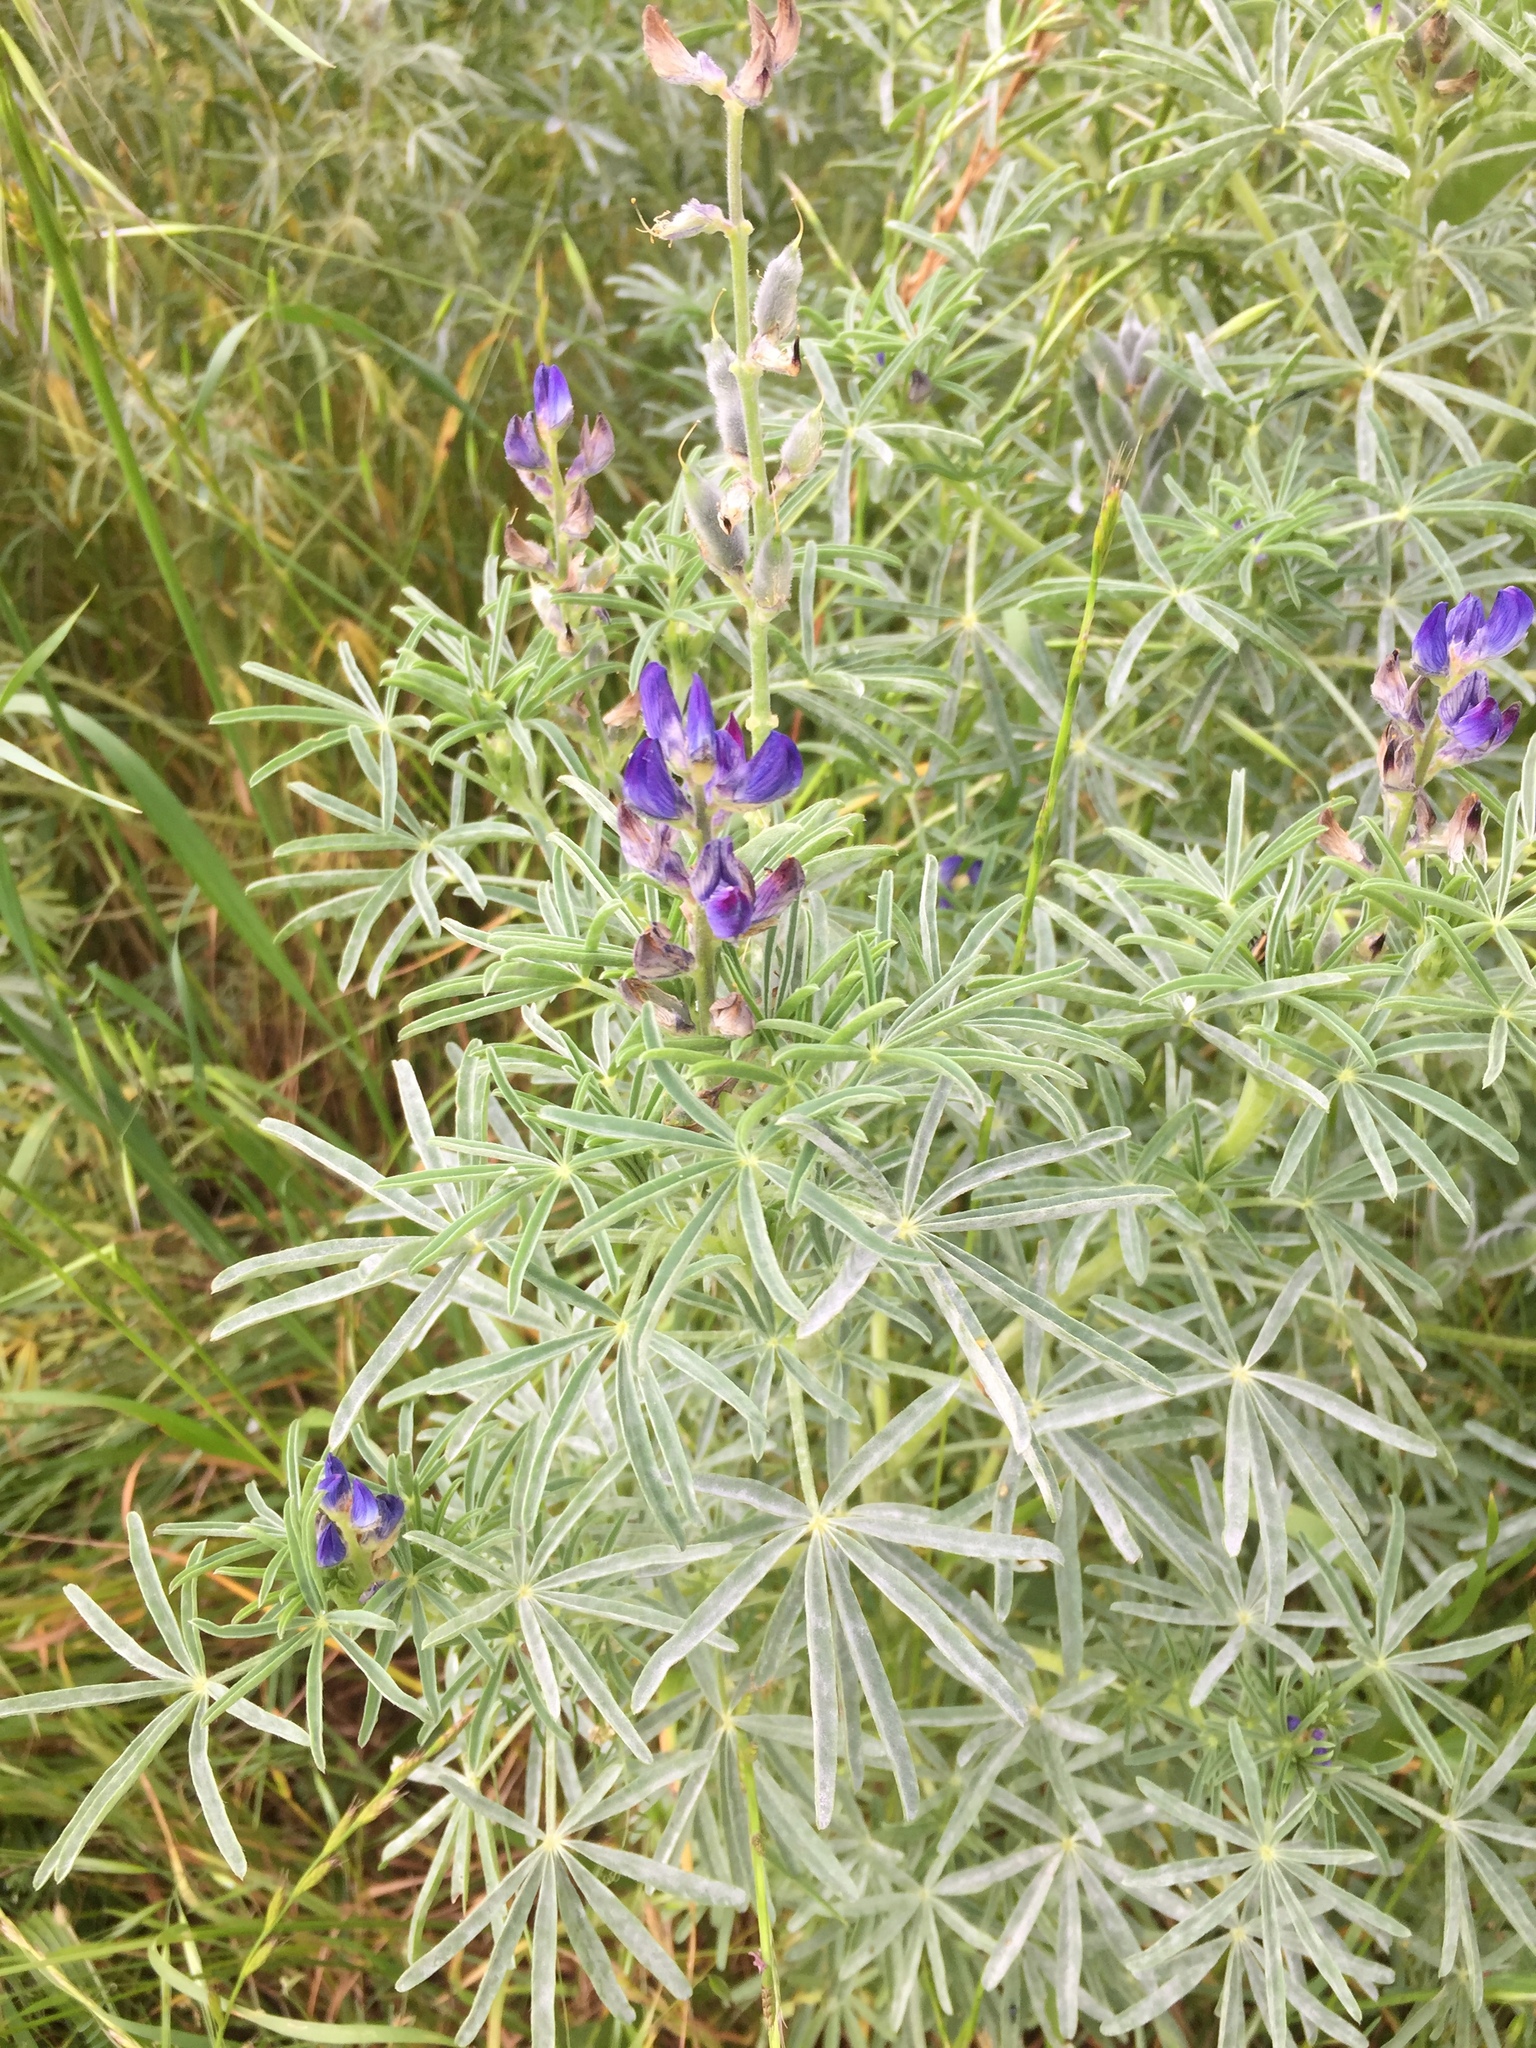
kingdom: Plantae
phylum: Tracheophyta
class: Magnoliopsida
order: Fabales
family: Fabaceae
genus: Lupinus
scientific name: Lupinus angustifolius
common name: Narrow-leaved lupin
